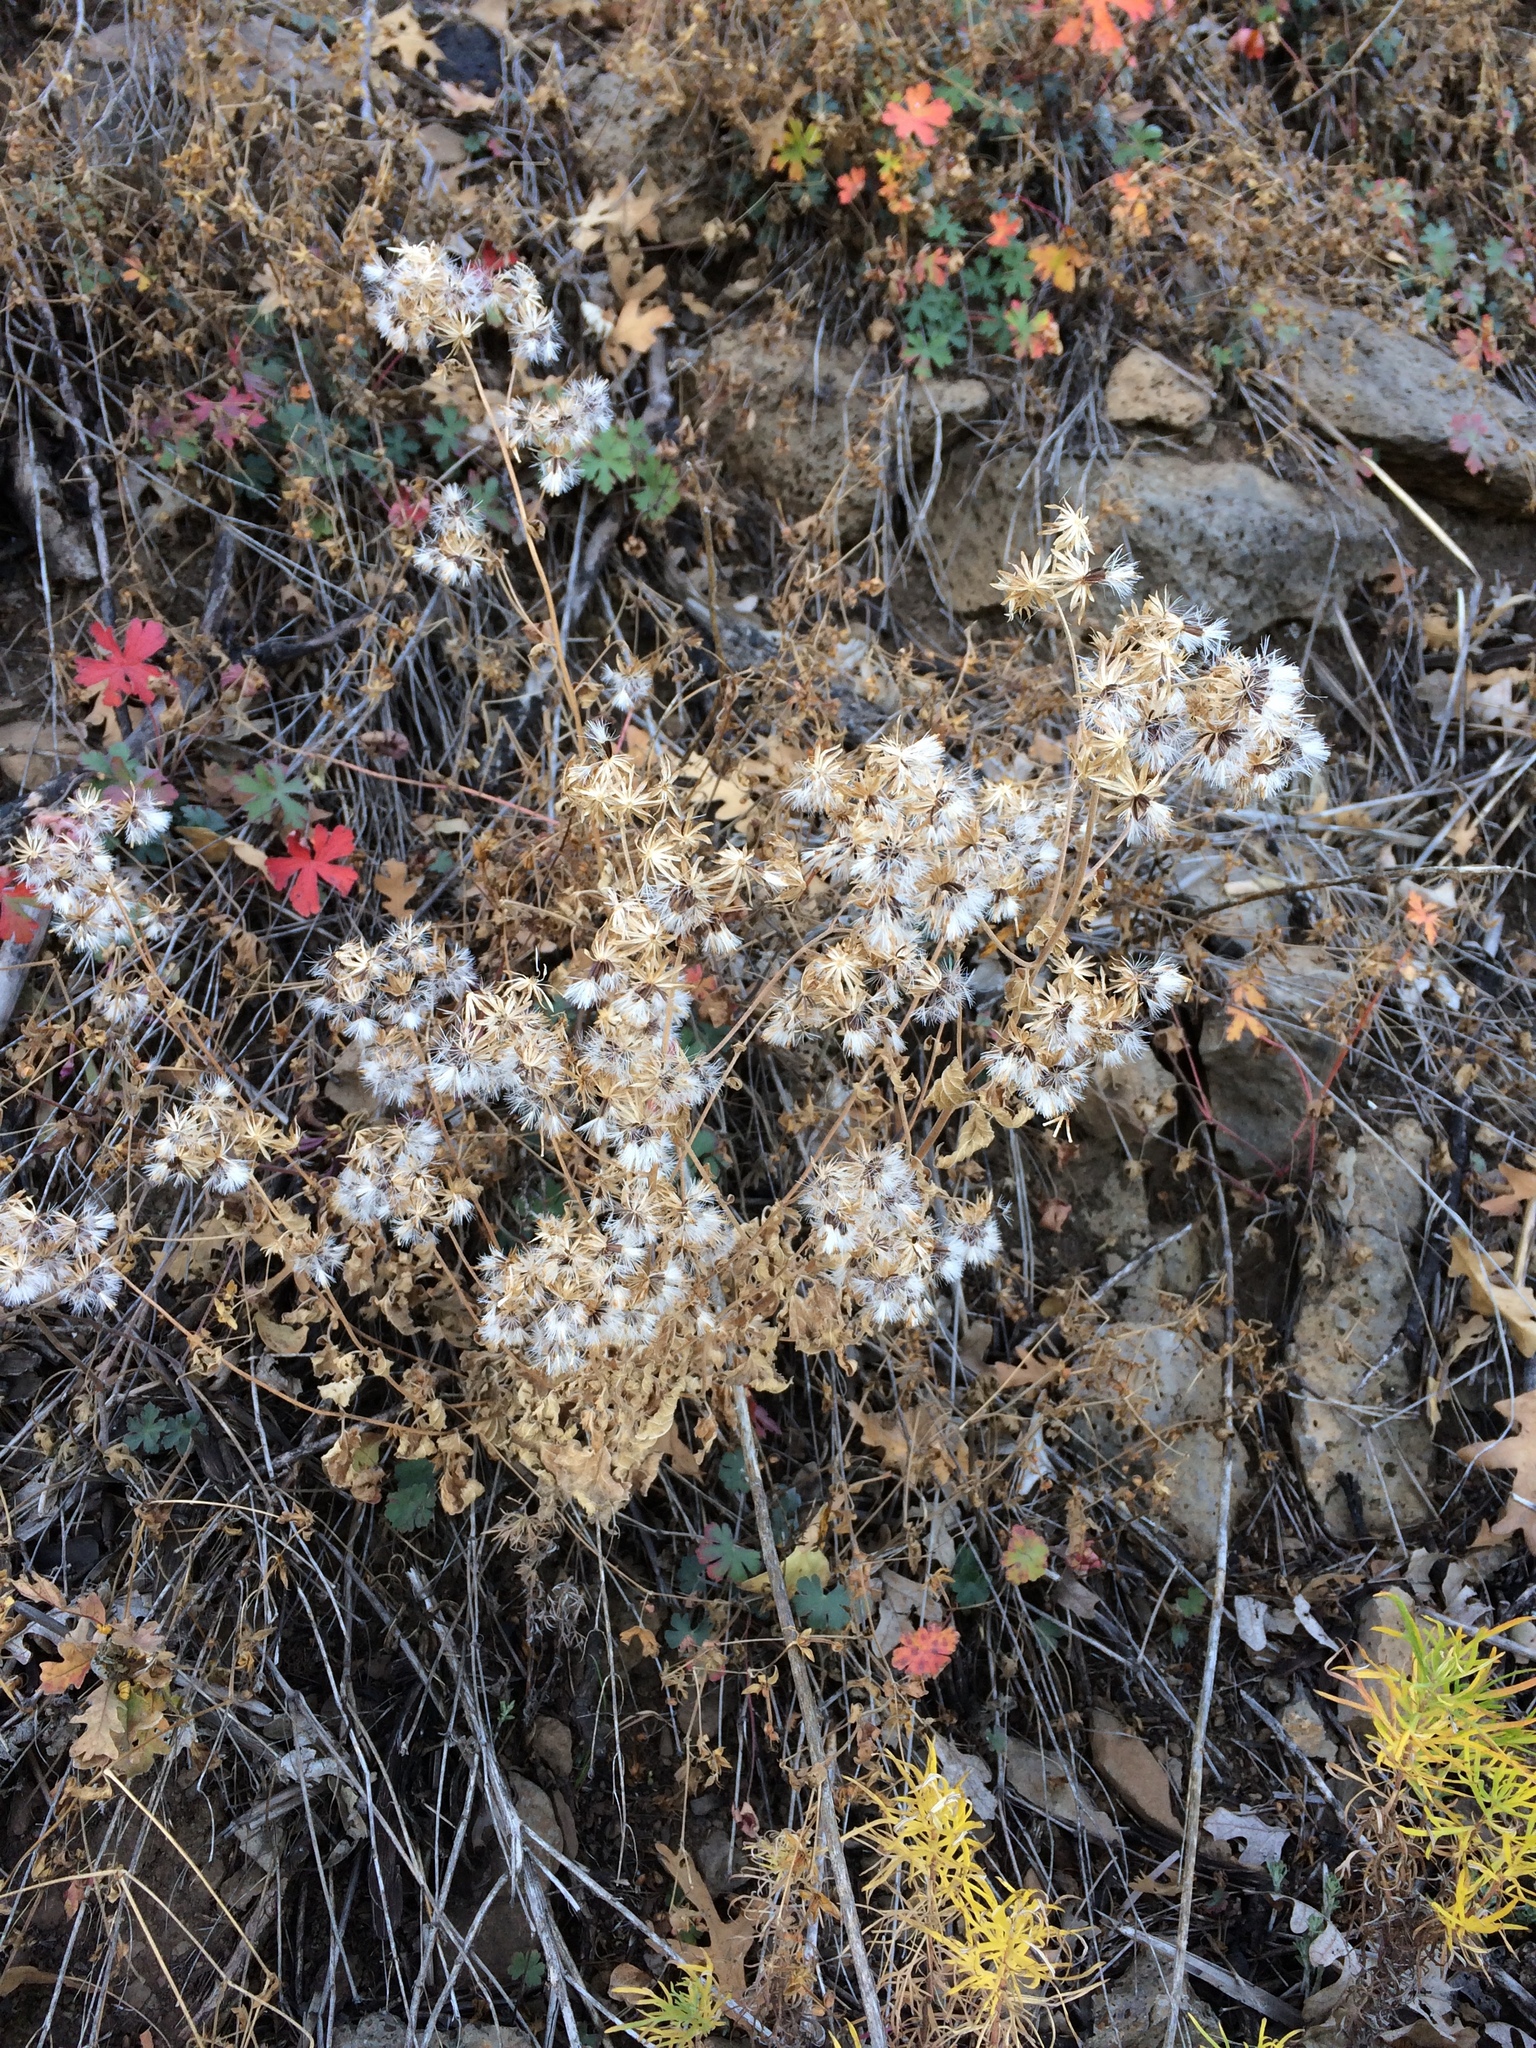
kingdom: Plantae
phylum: Tracheophyta
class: Magnoliopsida
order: Asterales
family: Asteraceae
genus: Brickellia
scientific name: Brickellia grandiflora
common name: Large-flowered brickellia
